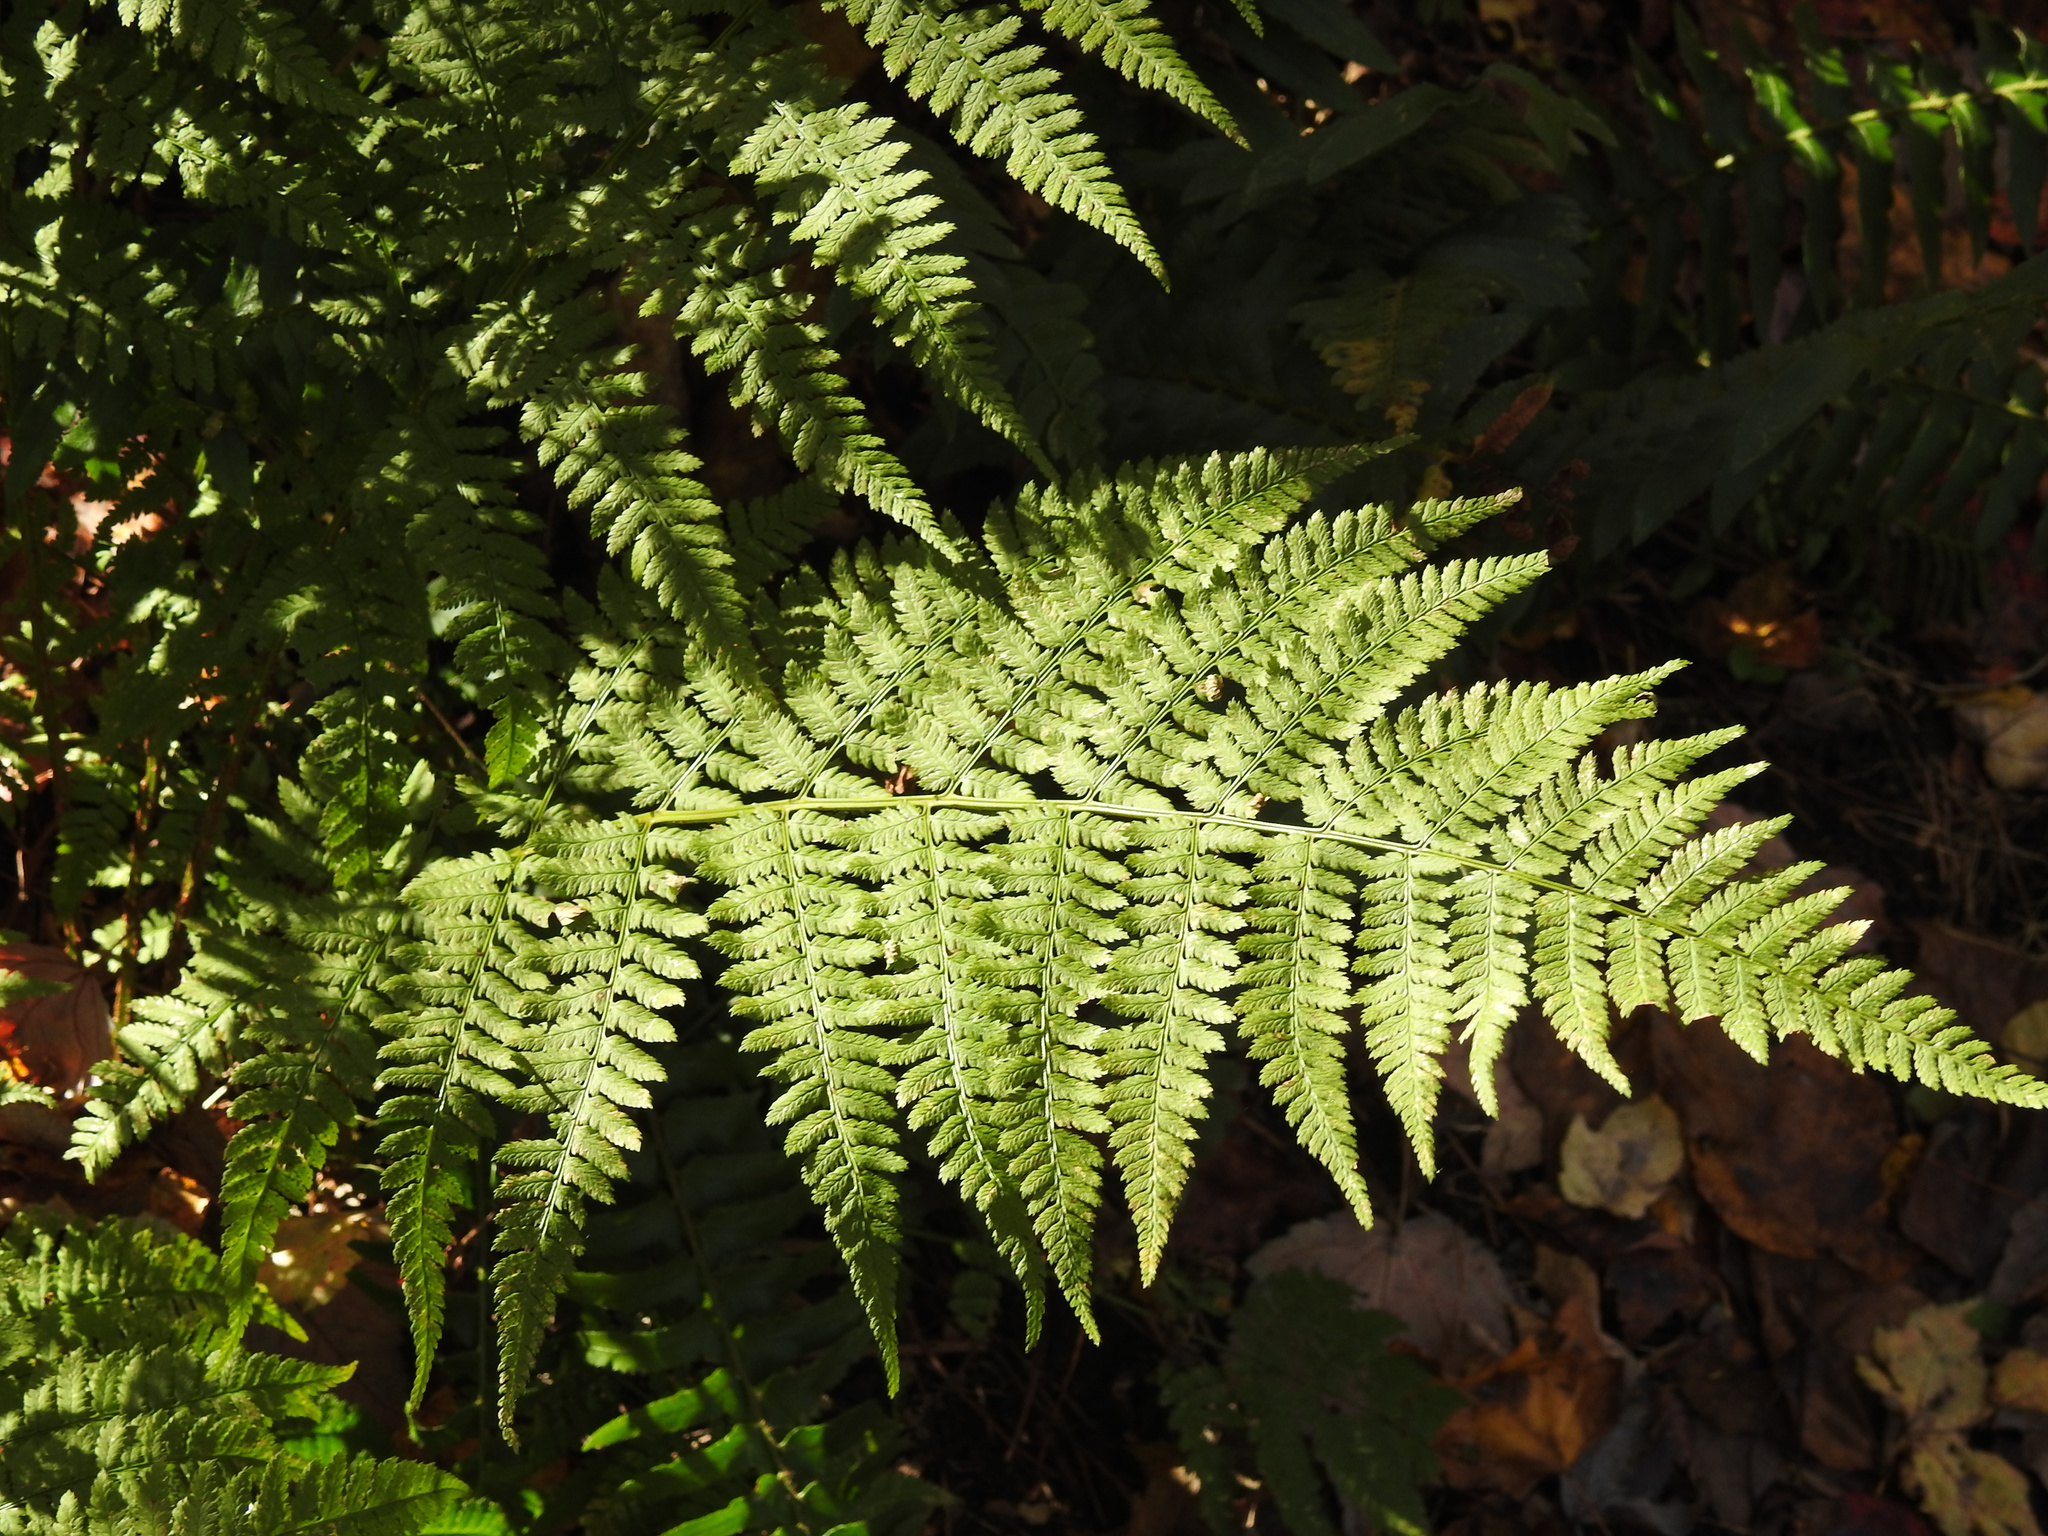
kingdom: Plantae
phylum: Tracheophyta
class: Polypodiopsida
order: Polypodiales
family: Dryopteridaceae
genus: Dryopteris
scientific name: Dryopteris intermedia
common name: Evergreen wood fern
